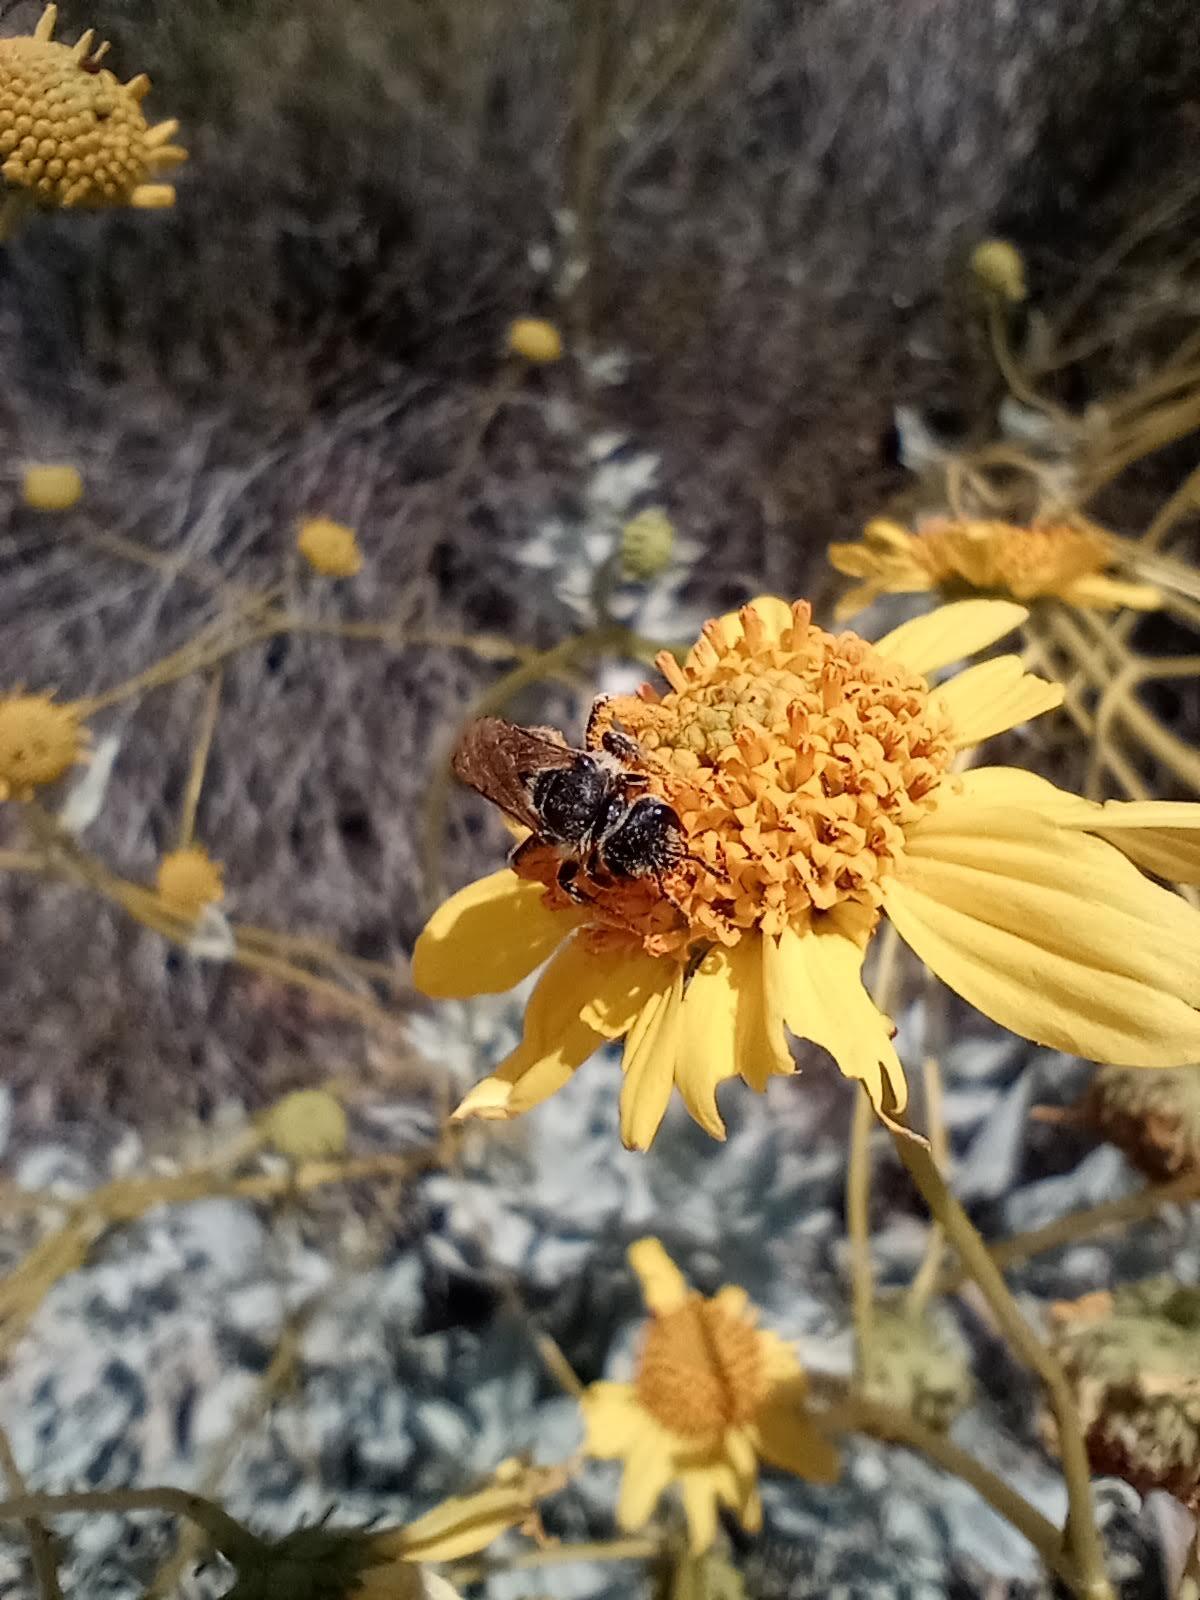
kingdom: Animalia
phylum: Arthropoda
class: Insecta
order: Hymenoptera
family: Halictidae
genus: Halictus
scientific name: Halictus farinosus
